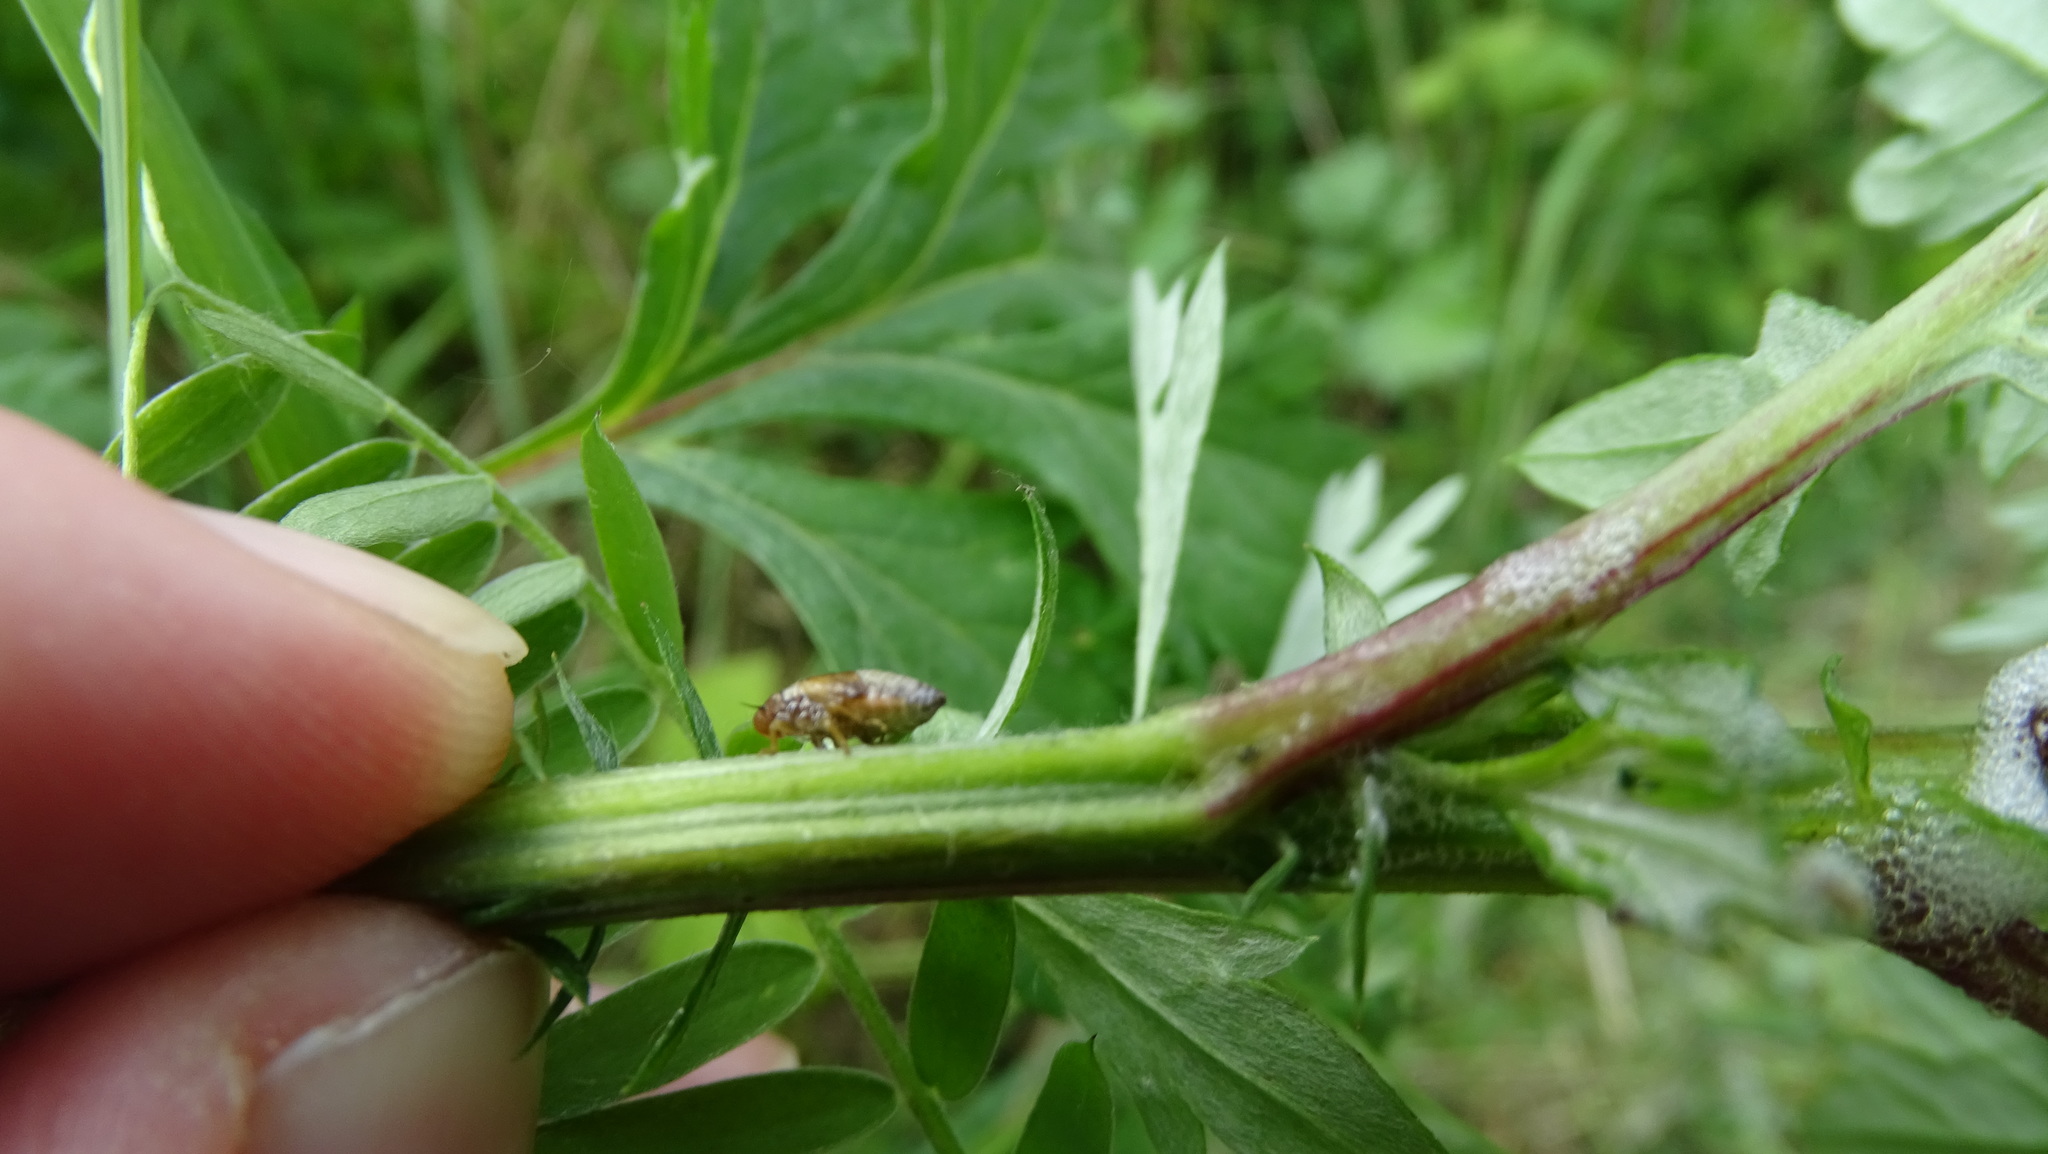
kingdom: Animalia
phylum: Arthropoda
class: Insecta
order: Hemiptera
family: Aphrophoridae
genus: Philaenus
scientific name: Philaenus spumarius
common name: Meadow spittlebug
